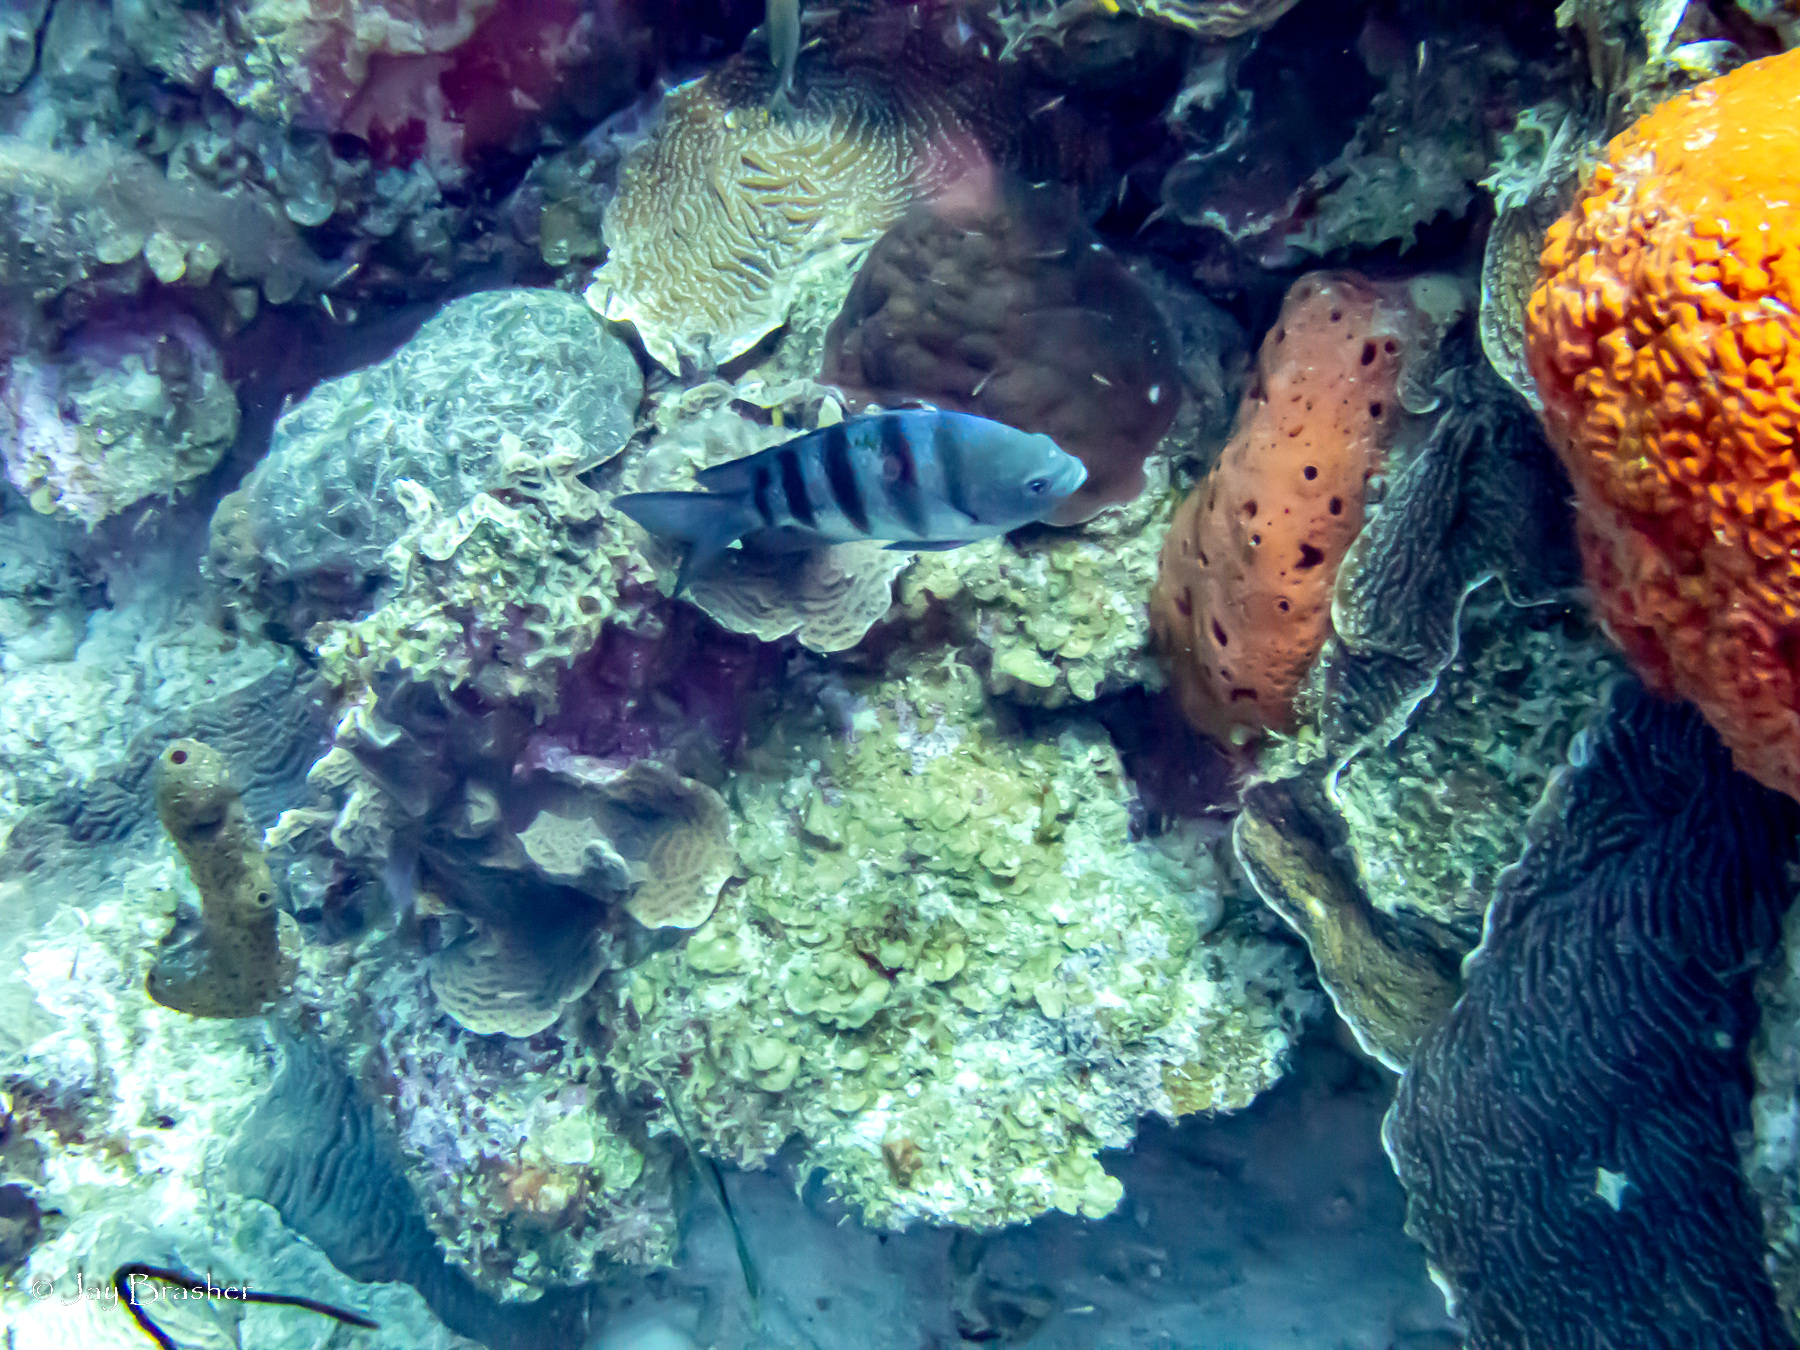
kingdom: Animalia
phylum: Porifera
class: Demospongiae
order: Agelasida
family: Agelasidae
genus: Agelas
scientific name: Agelas sventres
